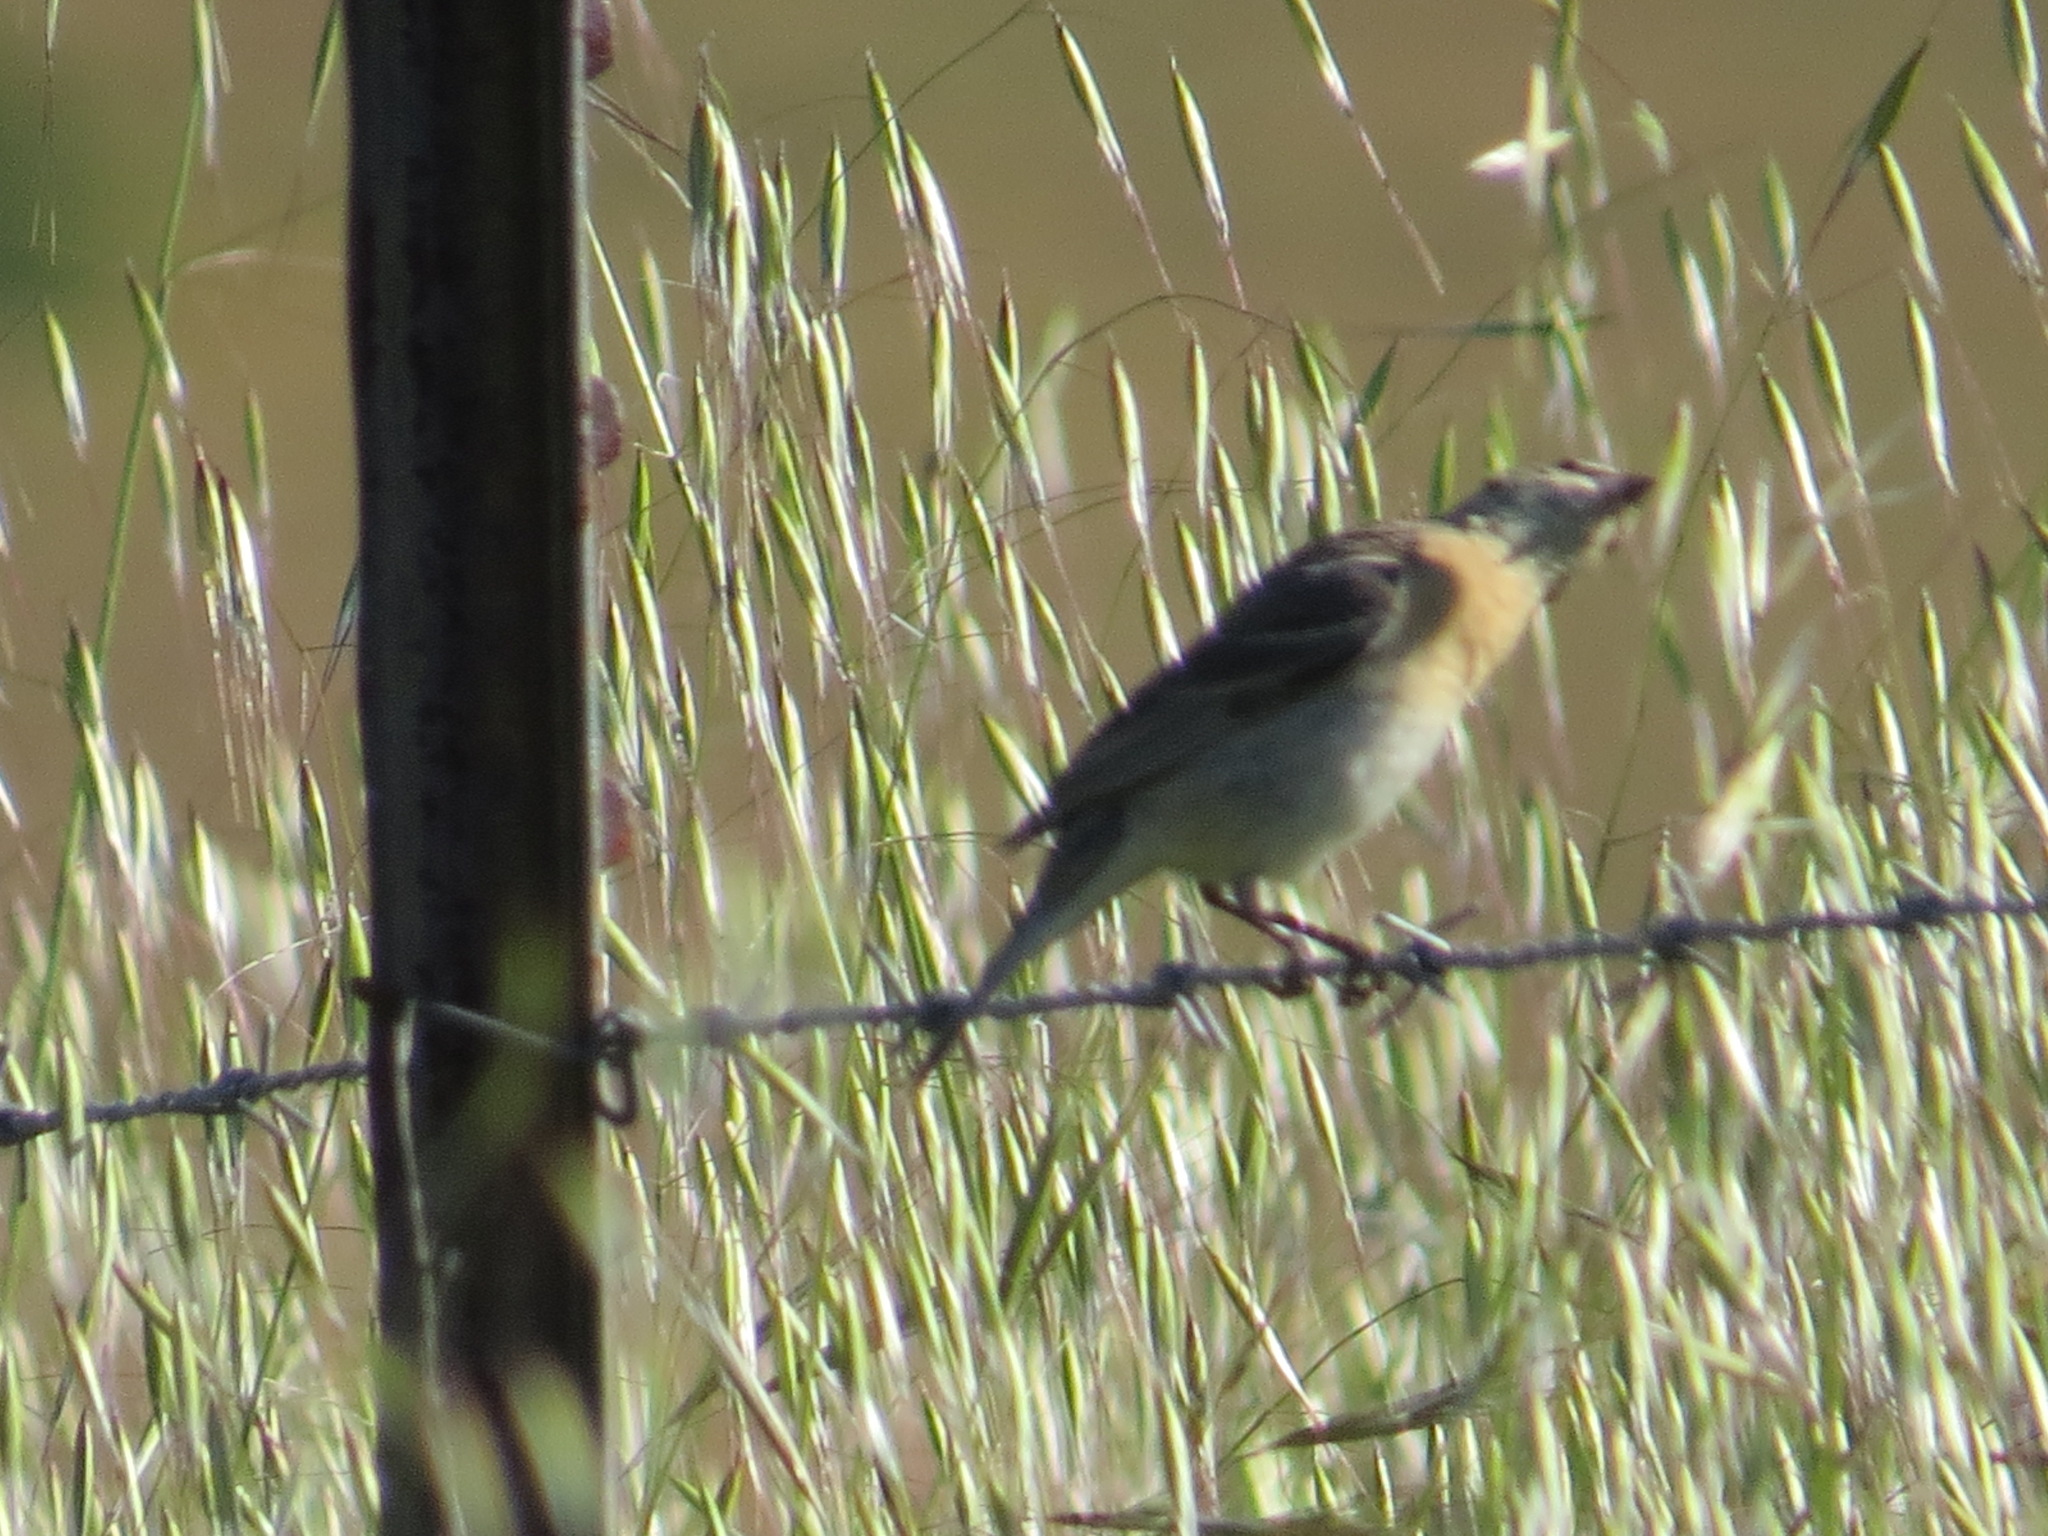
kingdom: Animalia
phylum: Chordata
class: Aves
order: Passeriformes
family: Cardinalidae
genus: Passerina
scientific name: Passerina amoena
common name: Lazuli bunting
